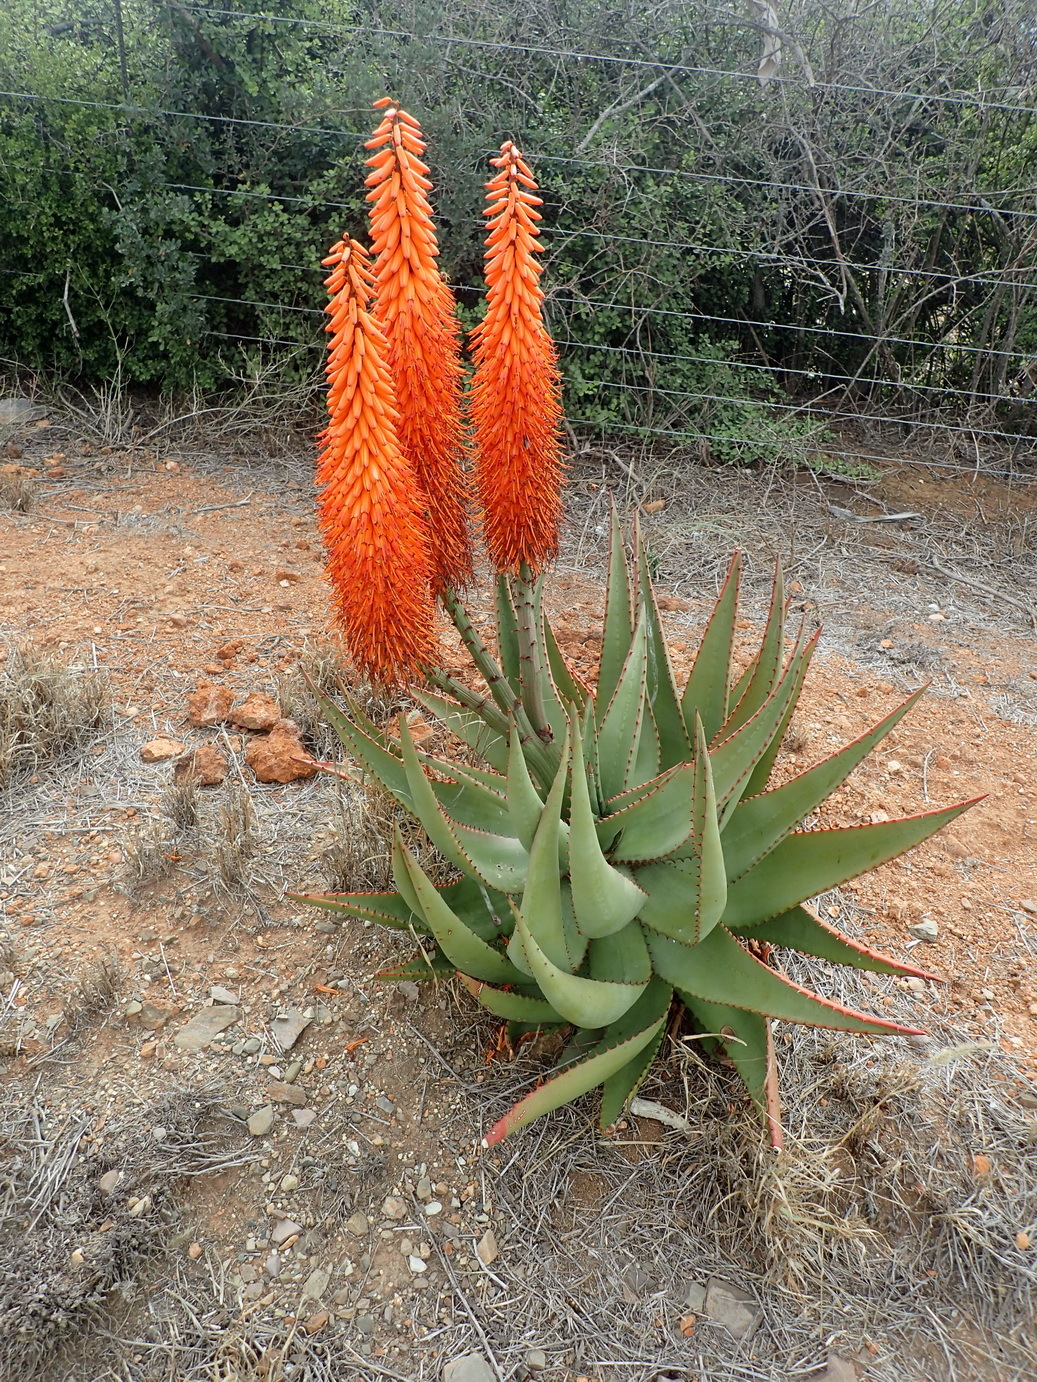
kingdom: Plantae
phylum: Tracheophyta
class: Liliopsida
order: Asparagales
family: Asphodelaceae
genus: Aloe
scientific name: Aloe ferox
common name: Bitter aloe
